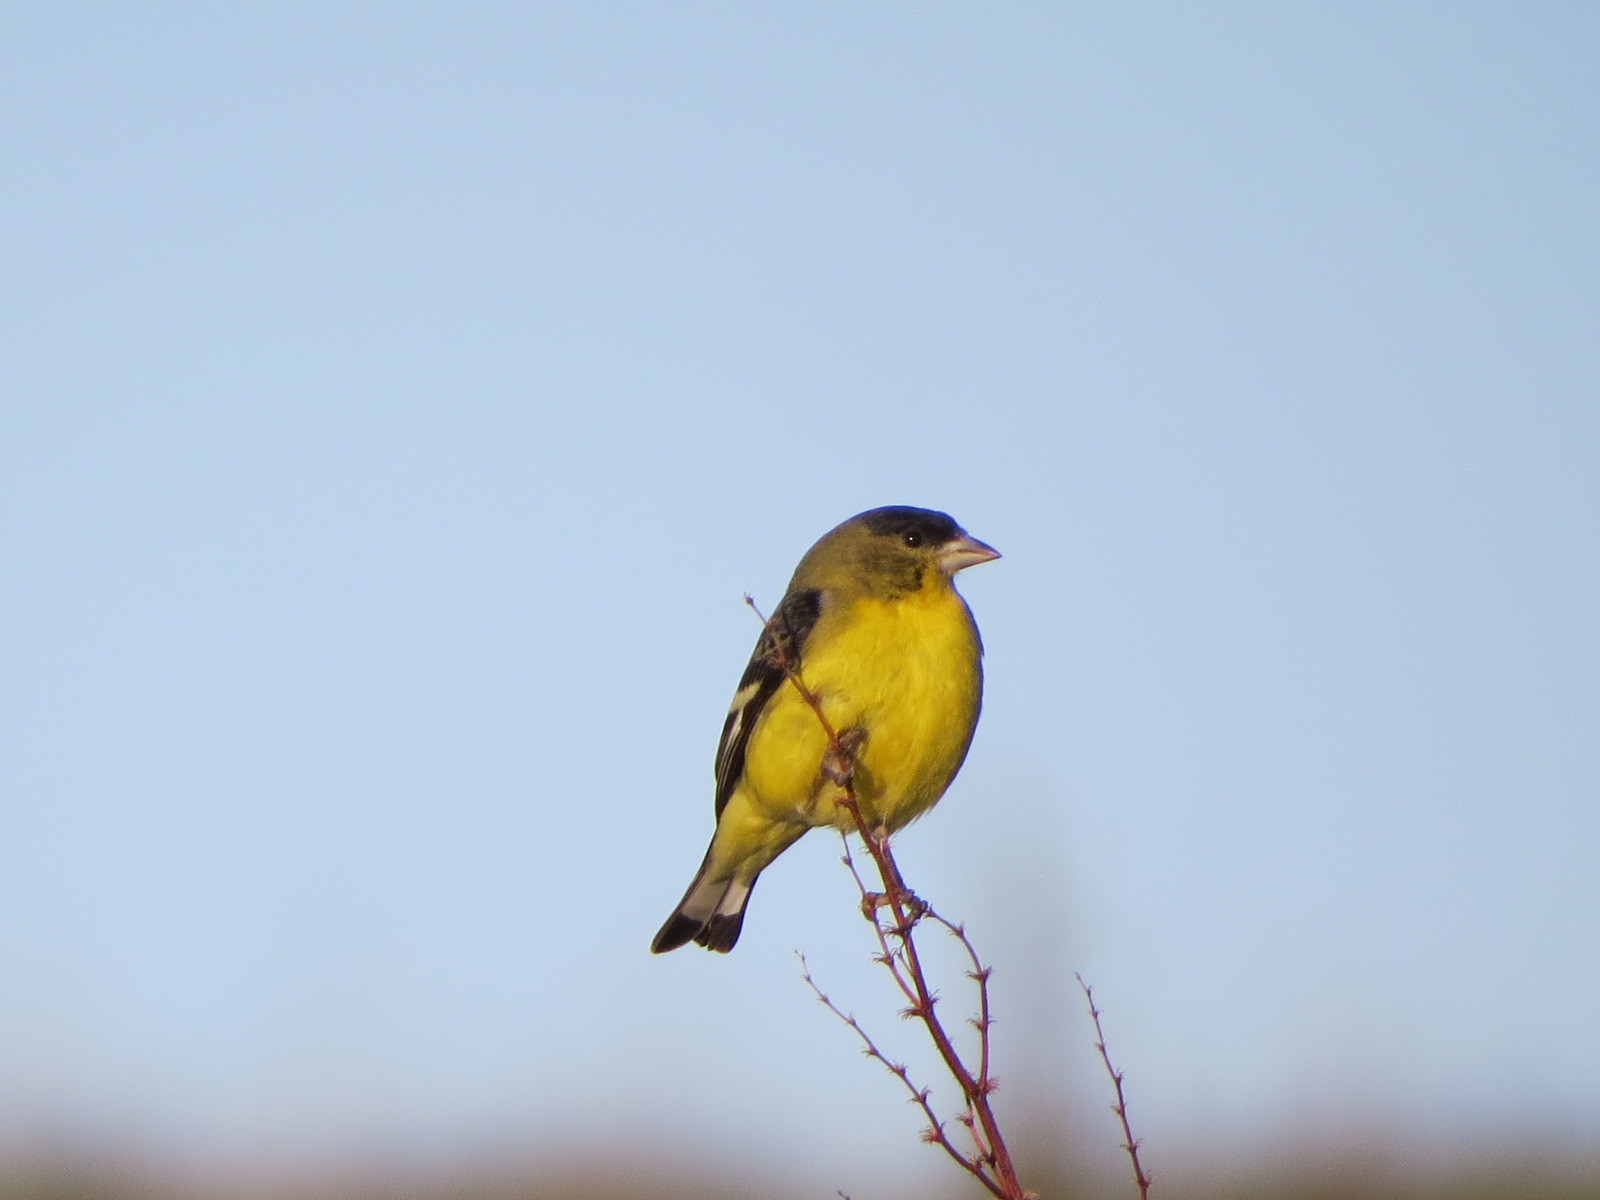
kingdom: Animalia
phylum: Chordata
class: Aves
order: Passeriformes
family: Fringillidae
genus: Spinus
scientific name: Spinus psaltria
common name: Lesser goldfinch
